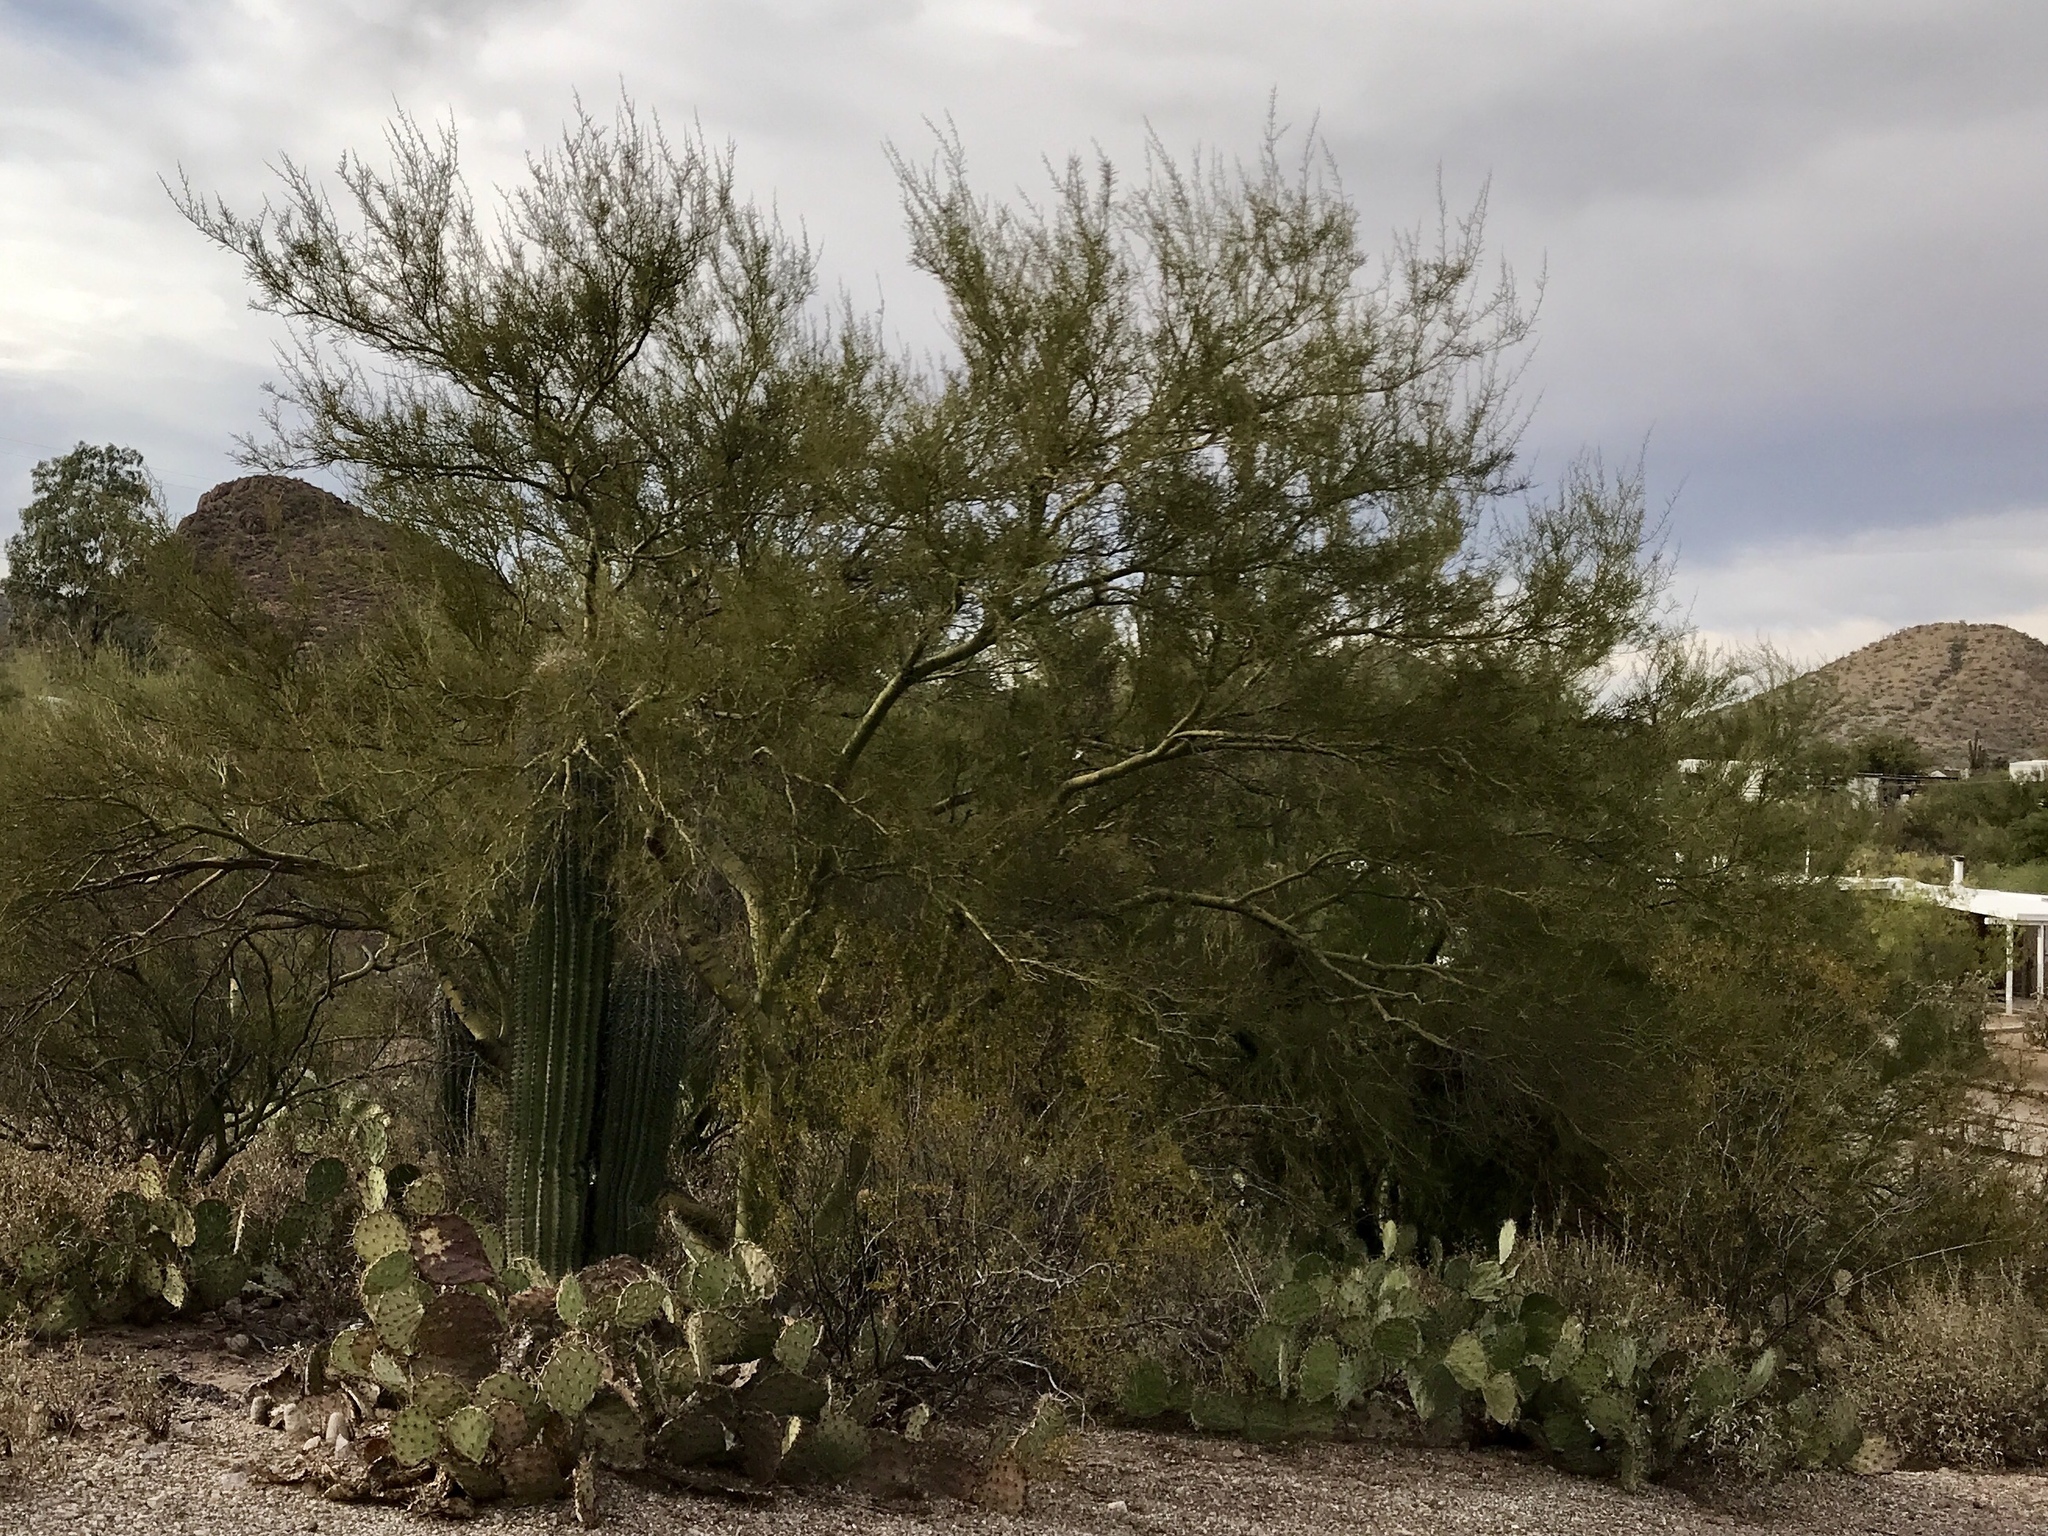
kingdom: Plantae
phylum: Tracheophyta
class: Magnoliopsida
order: Fabales
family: Fabaceae
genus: Parkinsonia
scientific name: Parkinsonia microphylla
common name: Yellow paloverde
